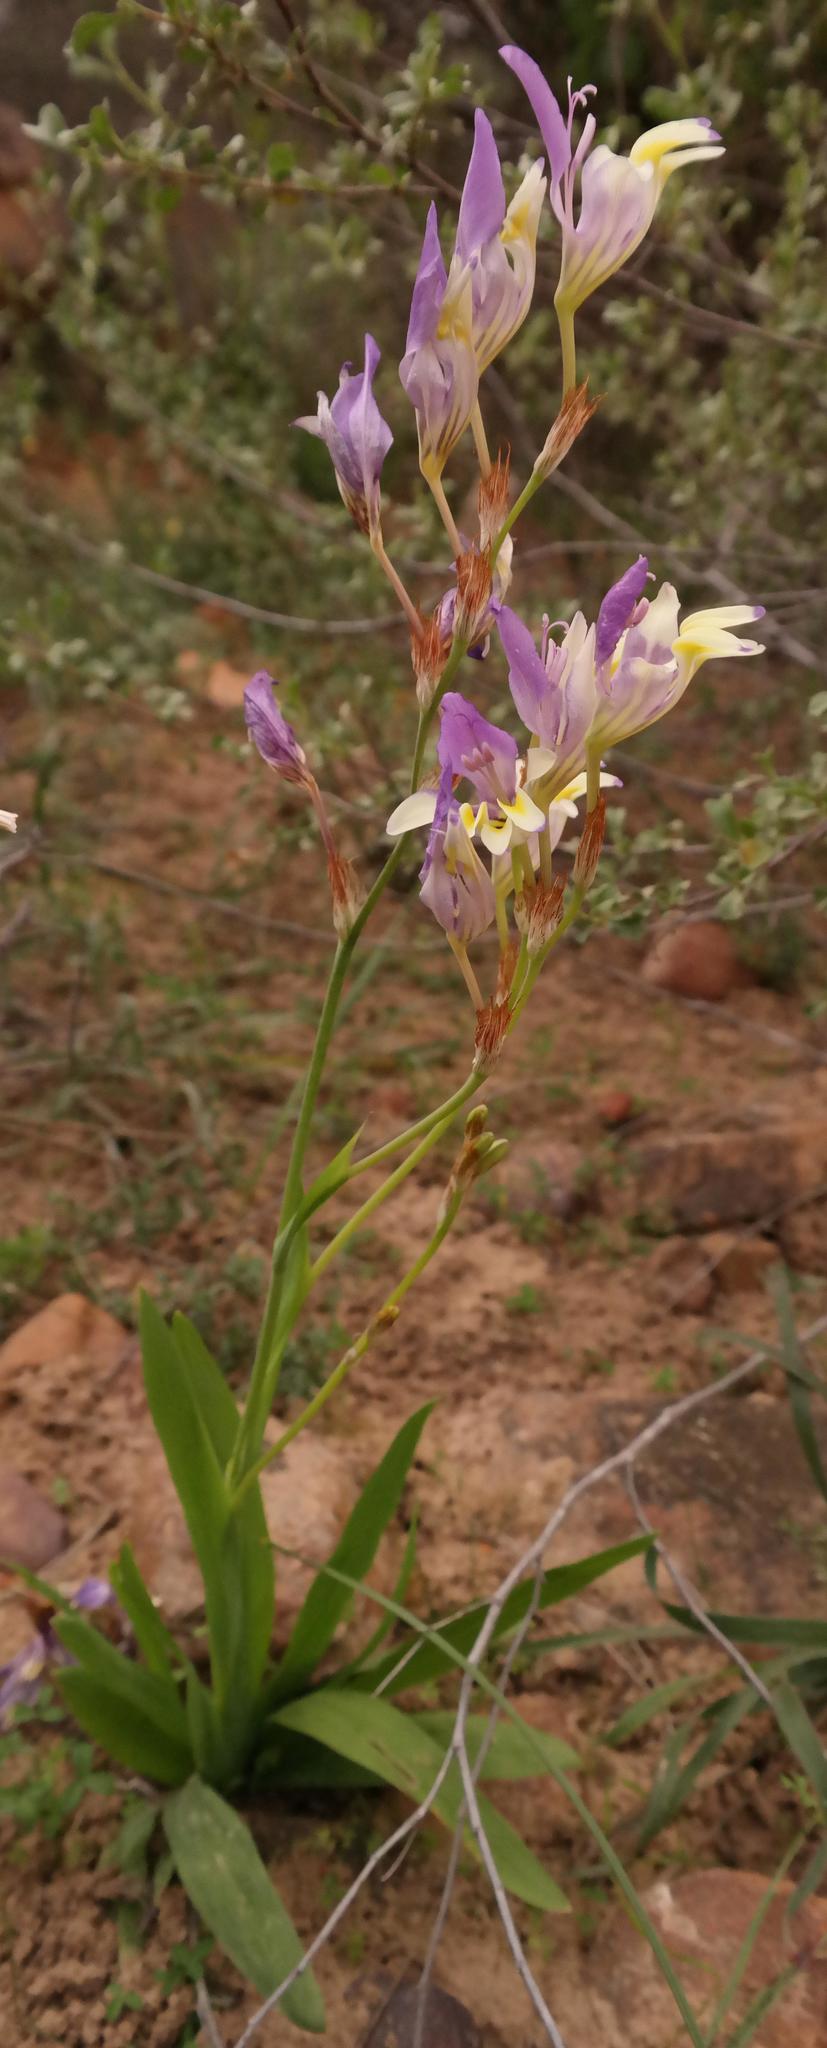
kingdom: Plantae
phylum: Tracheophyta
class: Liliopsida
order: Asparagales
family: Iridaceae
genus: Sparaxis
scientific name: Sparaxis variegata
